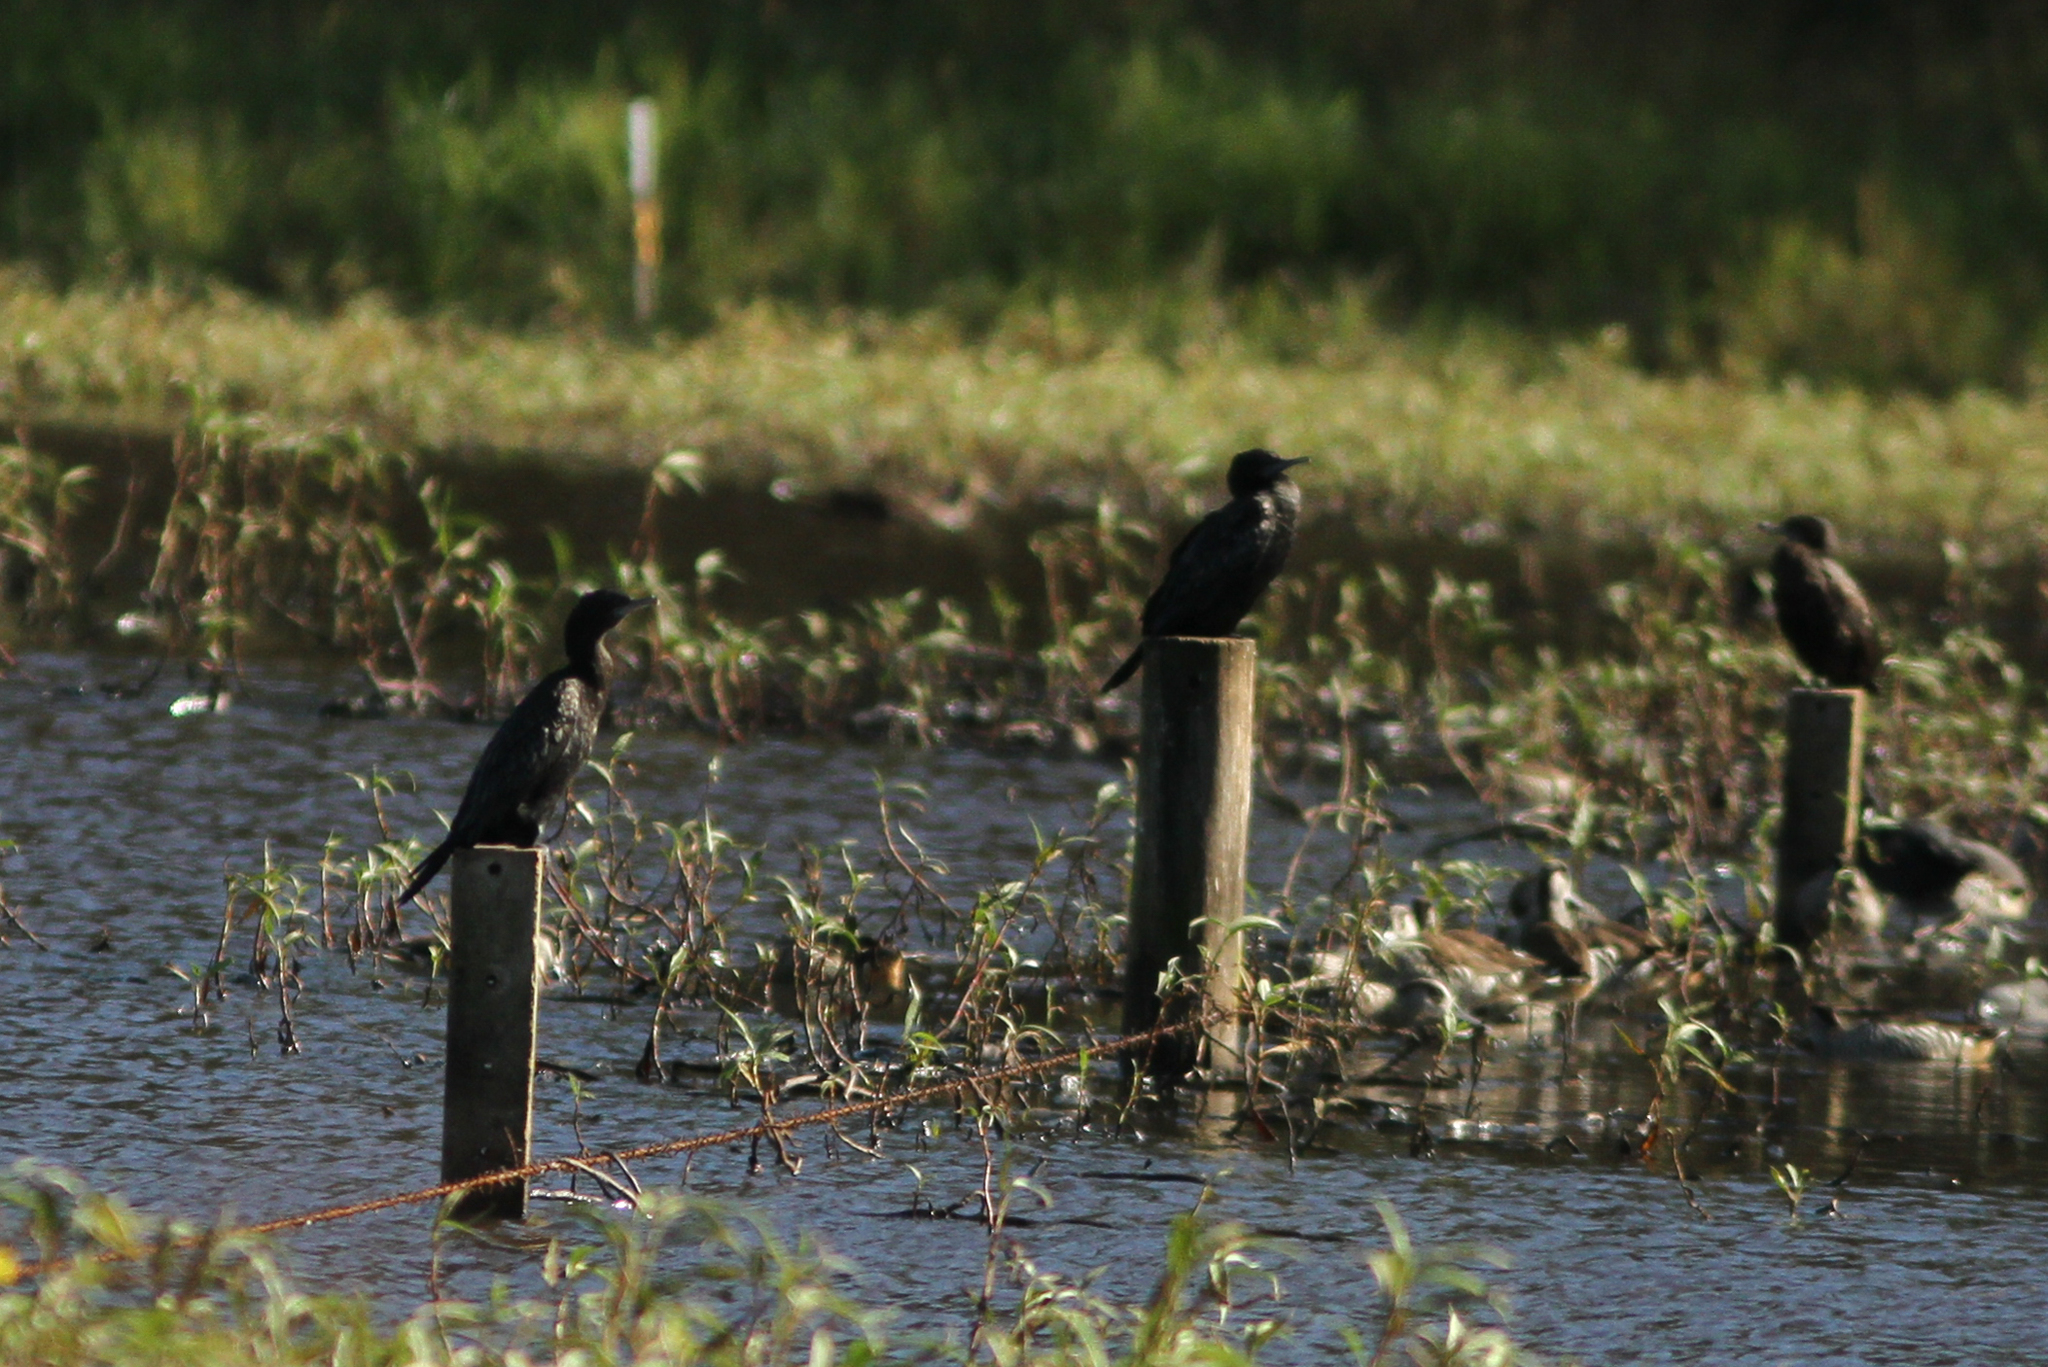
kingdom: Animalia
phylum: Chordata
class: Aves
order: Suliformes
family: Phalacrocoracidae
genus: Phalacrocorax
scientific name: Phalacrocorax sulcirostris
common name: Little black cormorant
